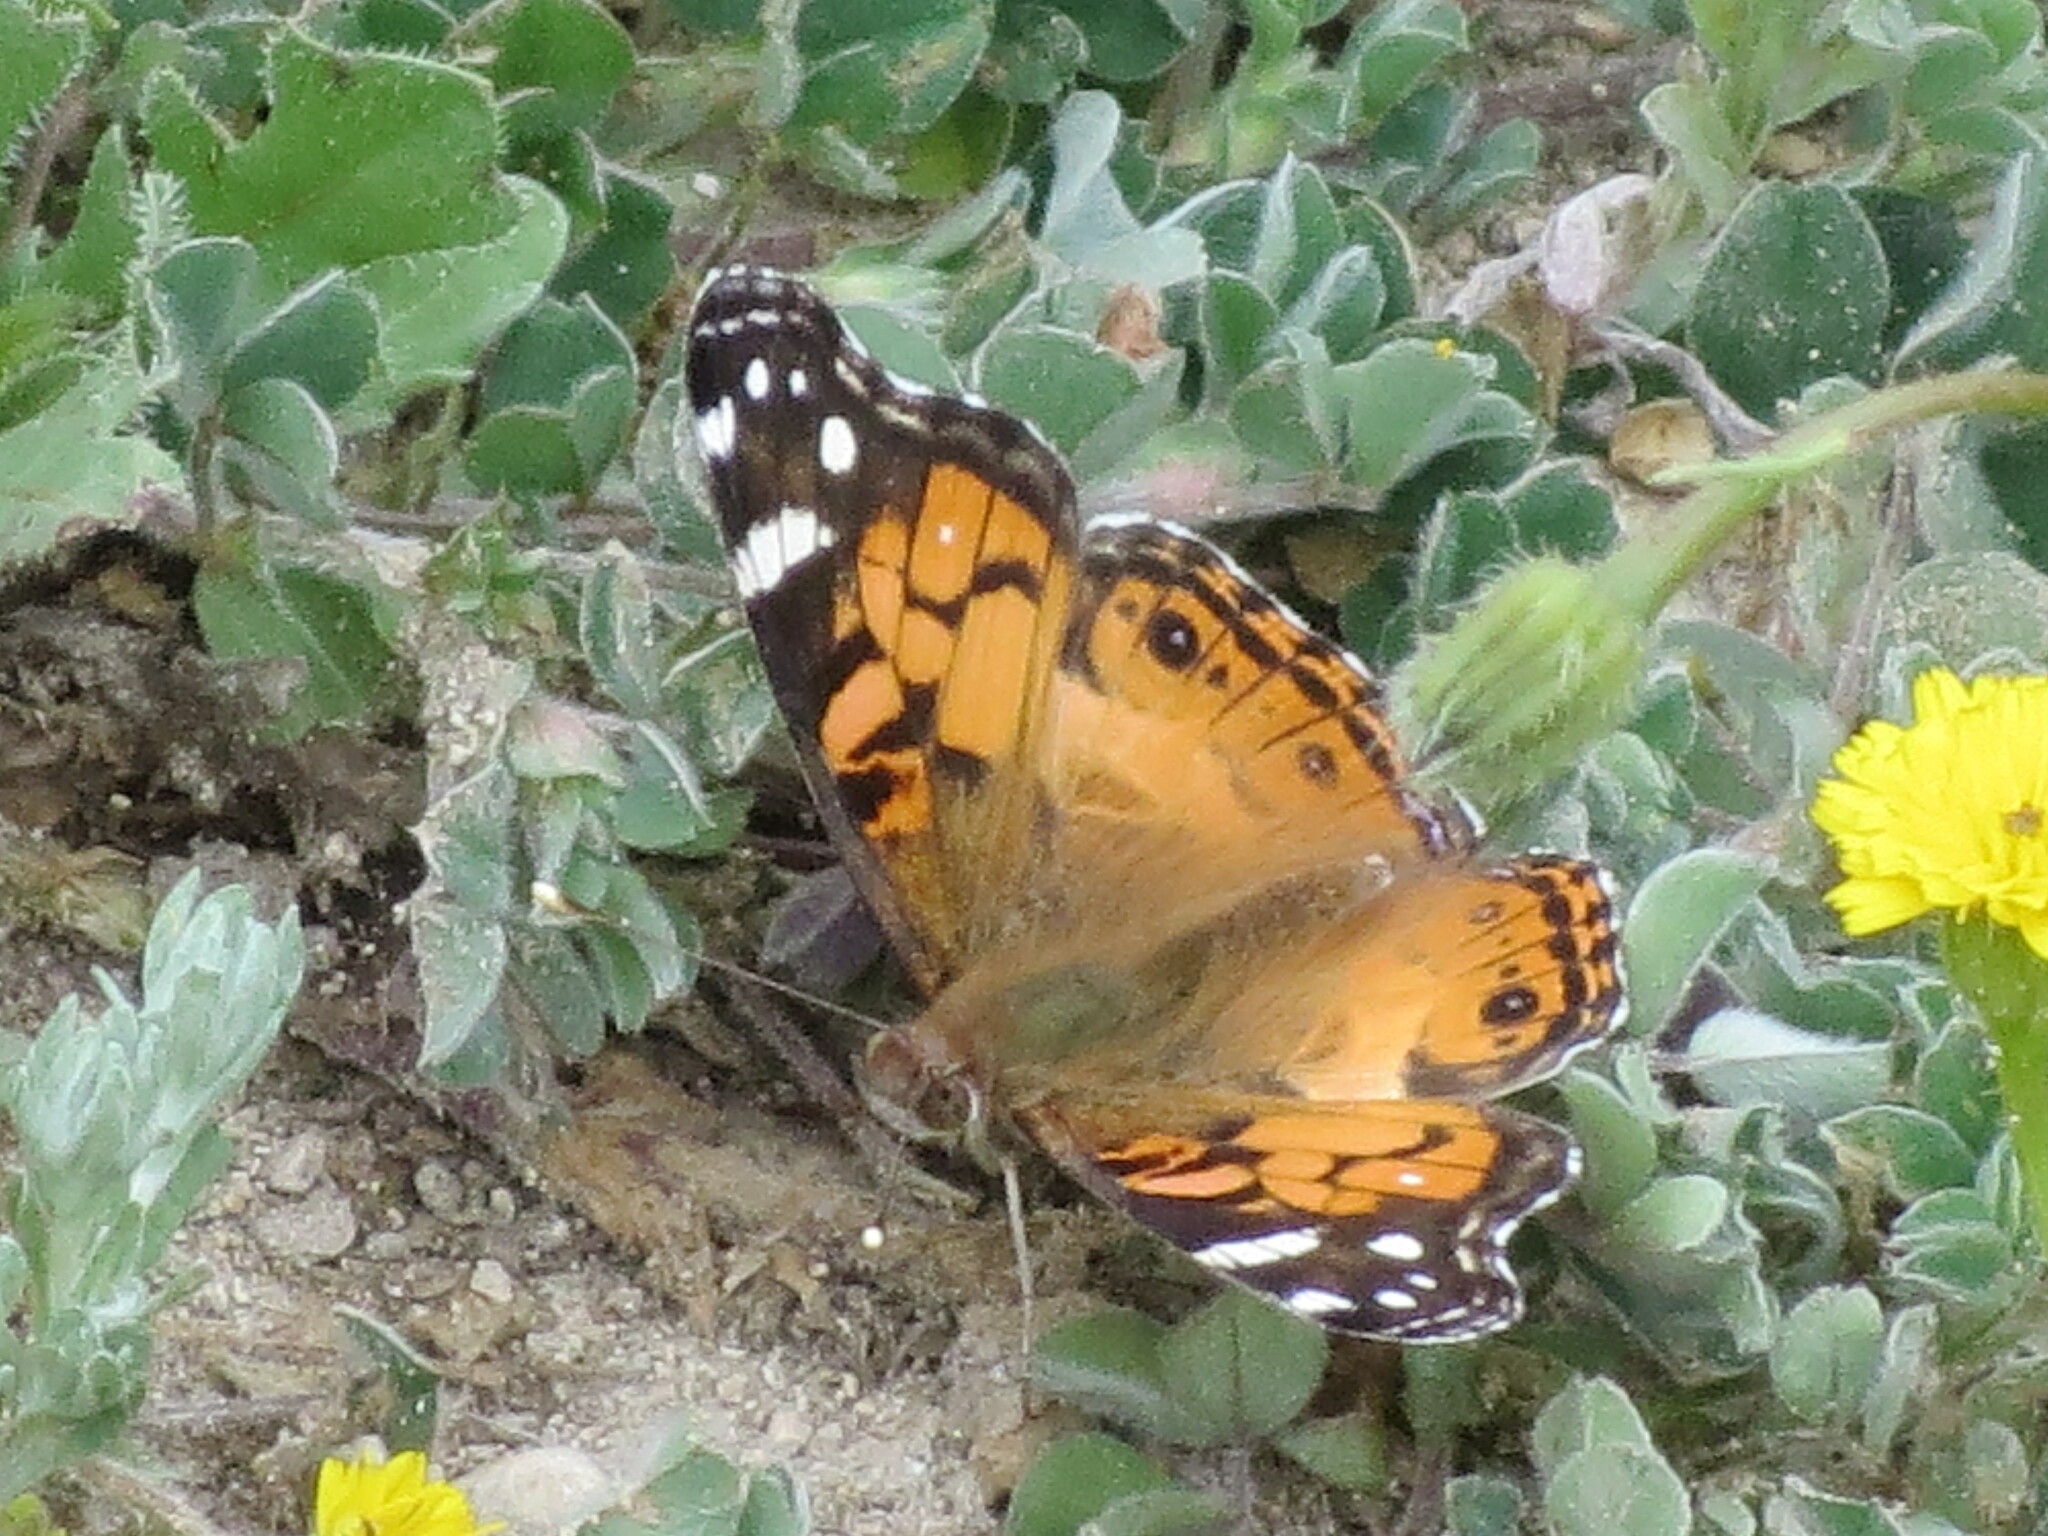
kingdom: Animalia
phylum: Arthropoda
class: Insecta
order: Lepidoptera
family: Nymphalidae
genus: Vanessa
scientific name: Vanessa virginiensis
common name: American lady
